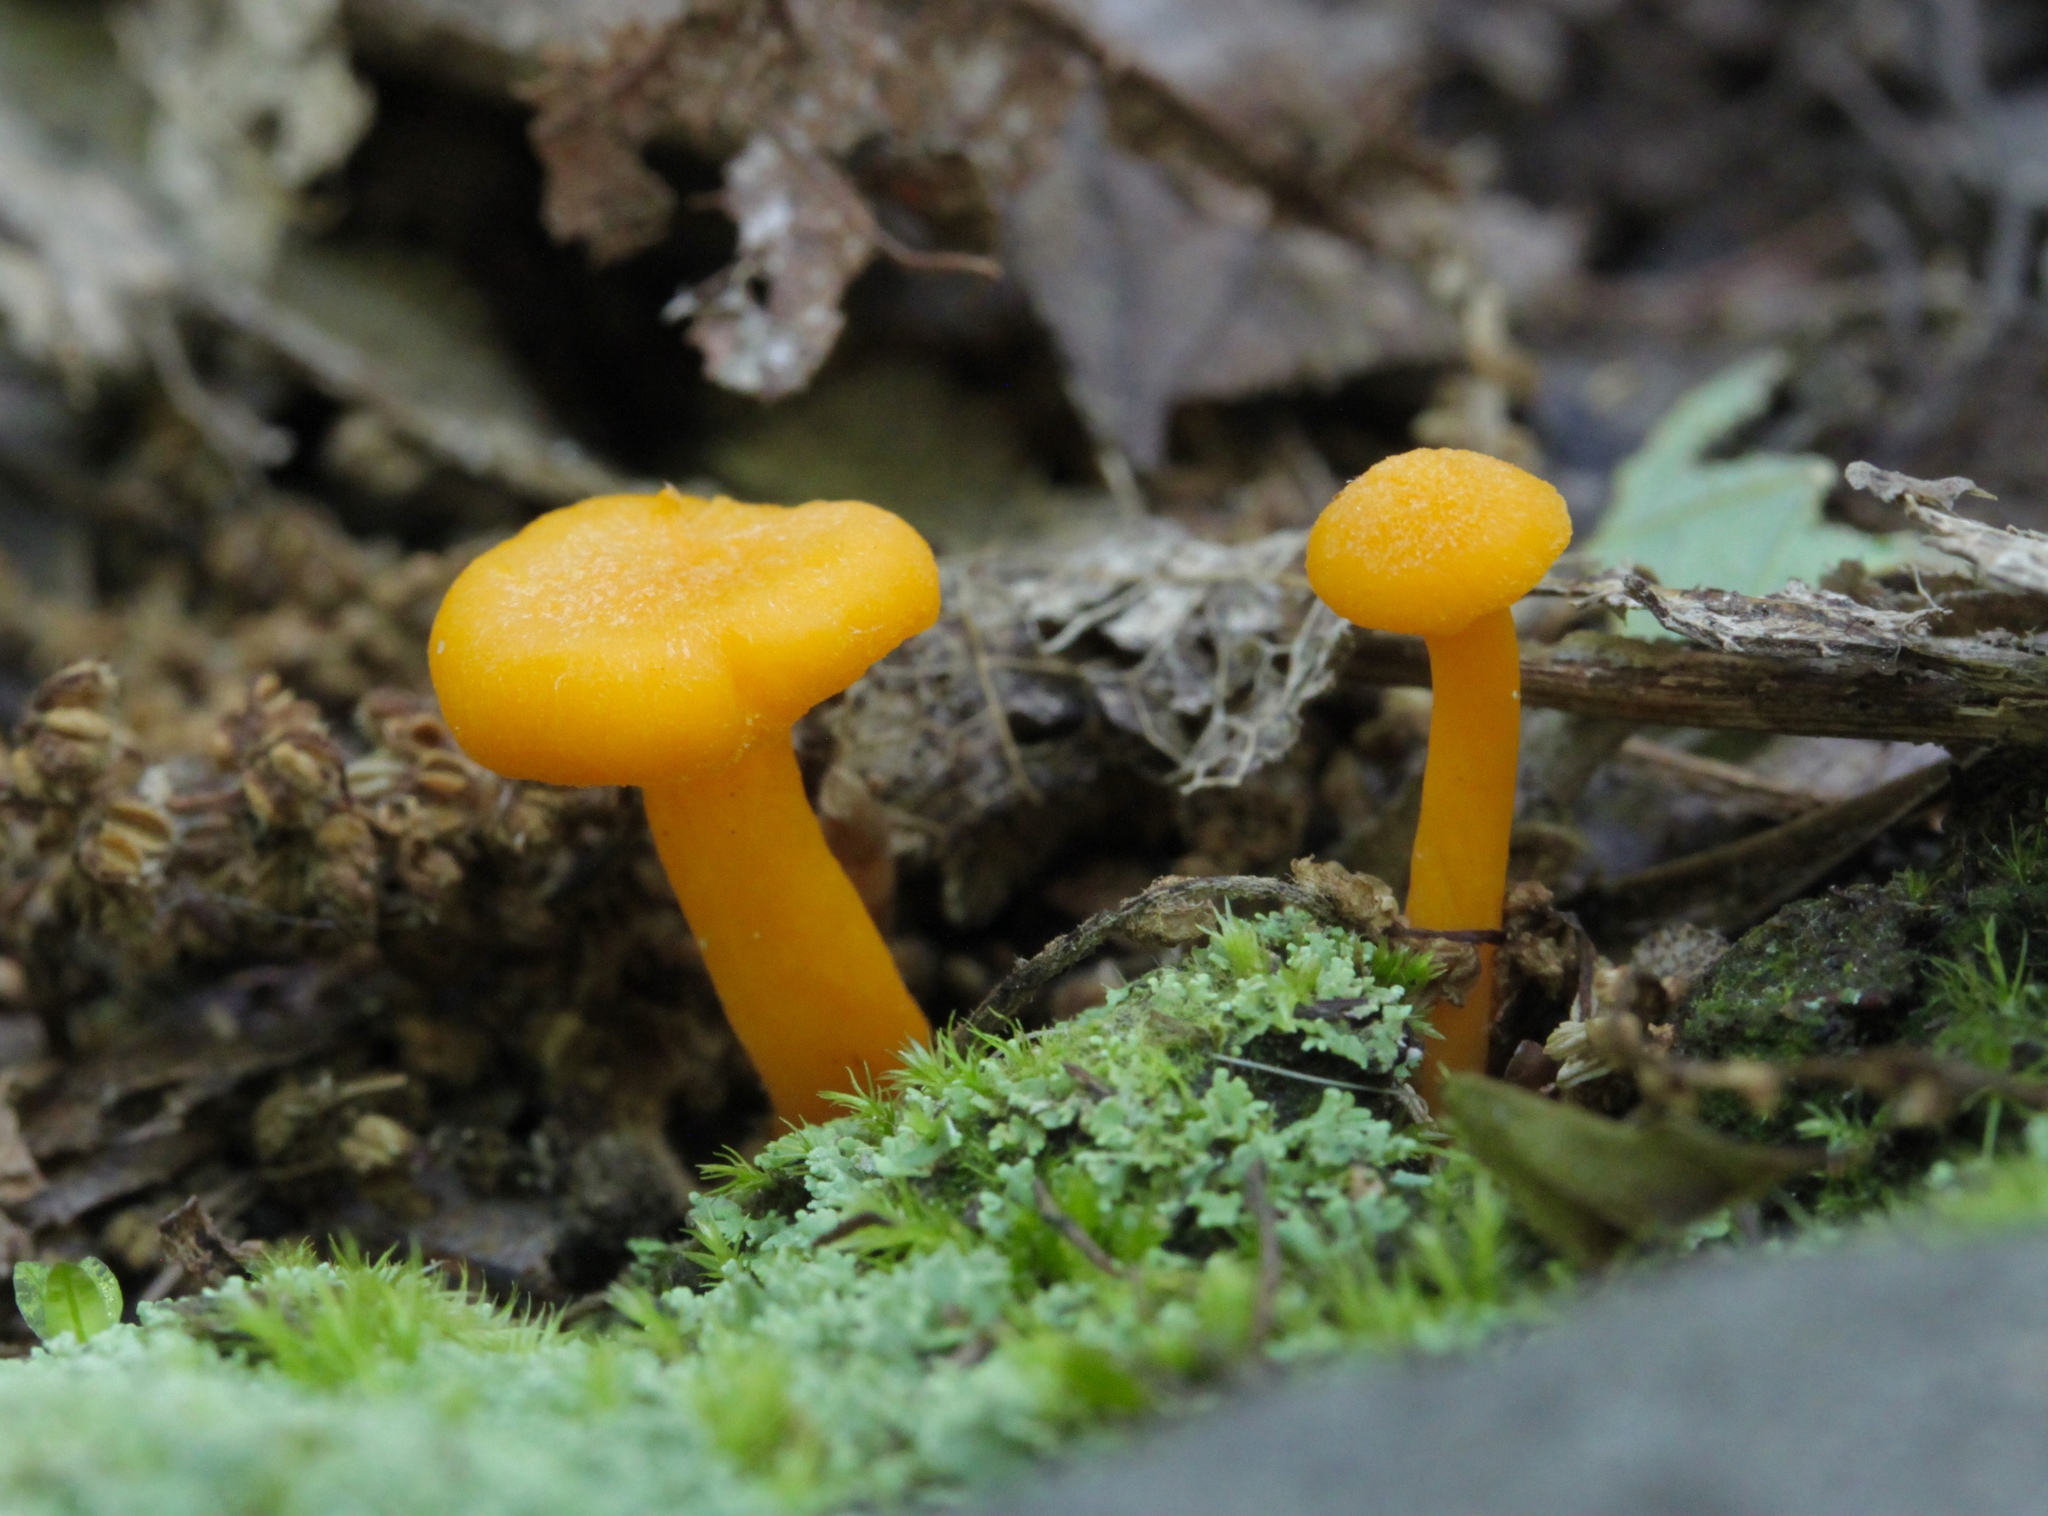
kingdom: Fungi
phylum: Basidiomycota
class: Agaricomycetes
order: Cantharellales
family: Hydnaceae
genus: Cantharellus
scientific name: Cantharellus minor
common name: Small chanterelle
